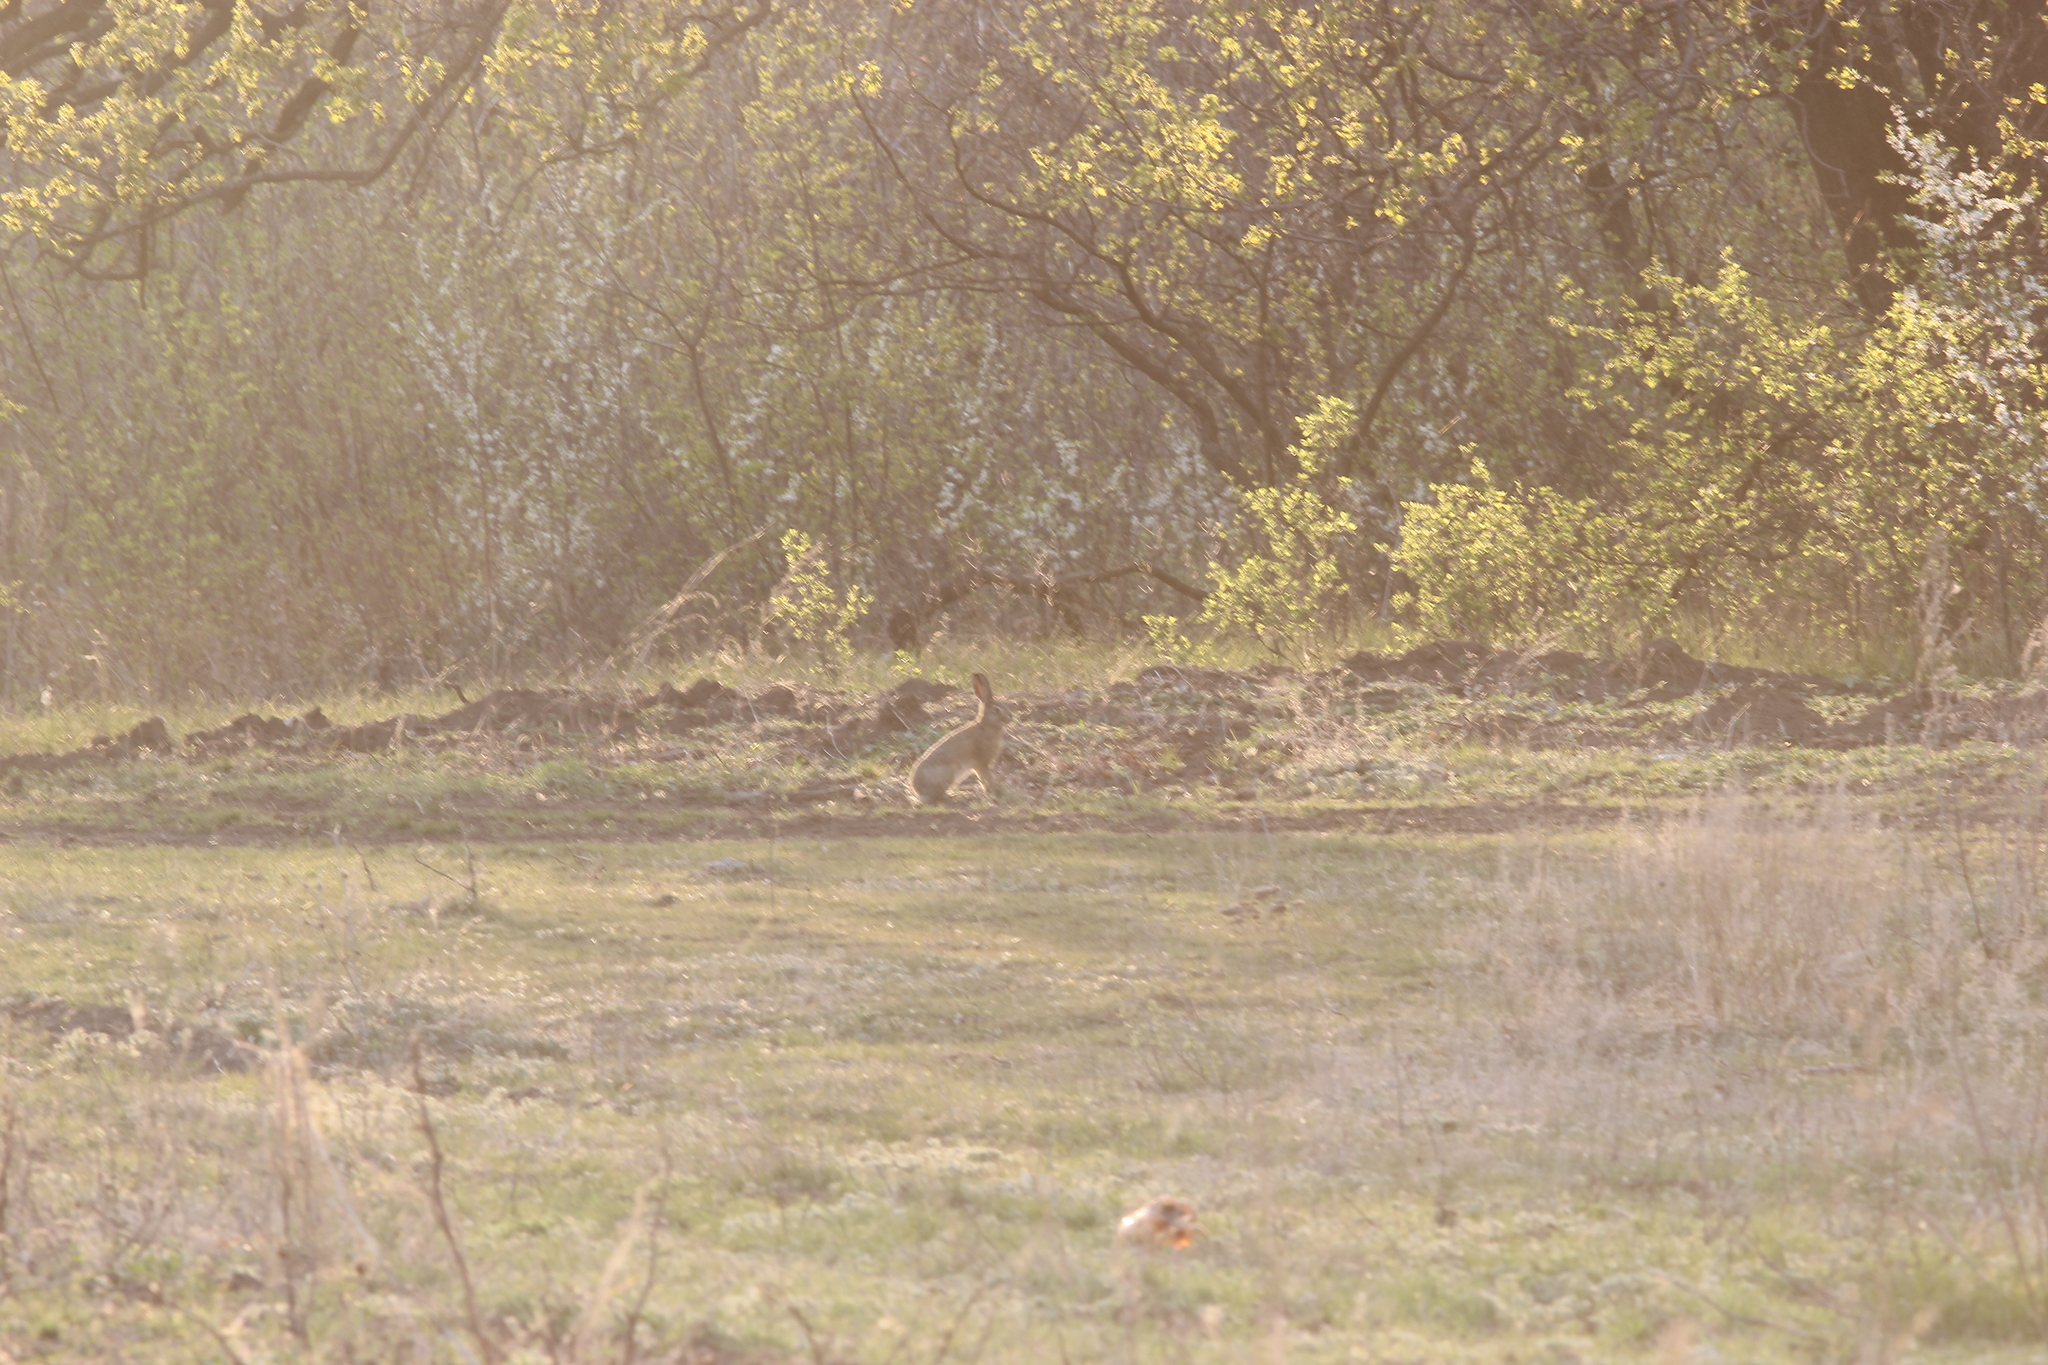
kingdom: Animalia
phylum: Chordata
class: Mammalia
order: Lagomorpha
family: Leporidae
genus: Lepus
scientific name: Lepus europaeus
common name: European hare
